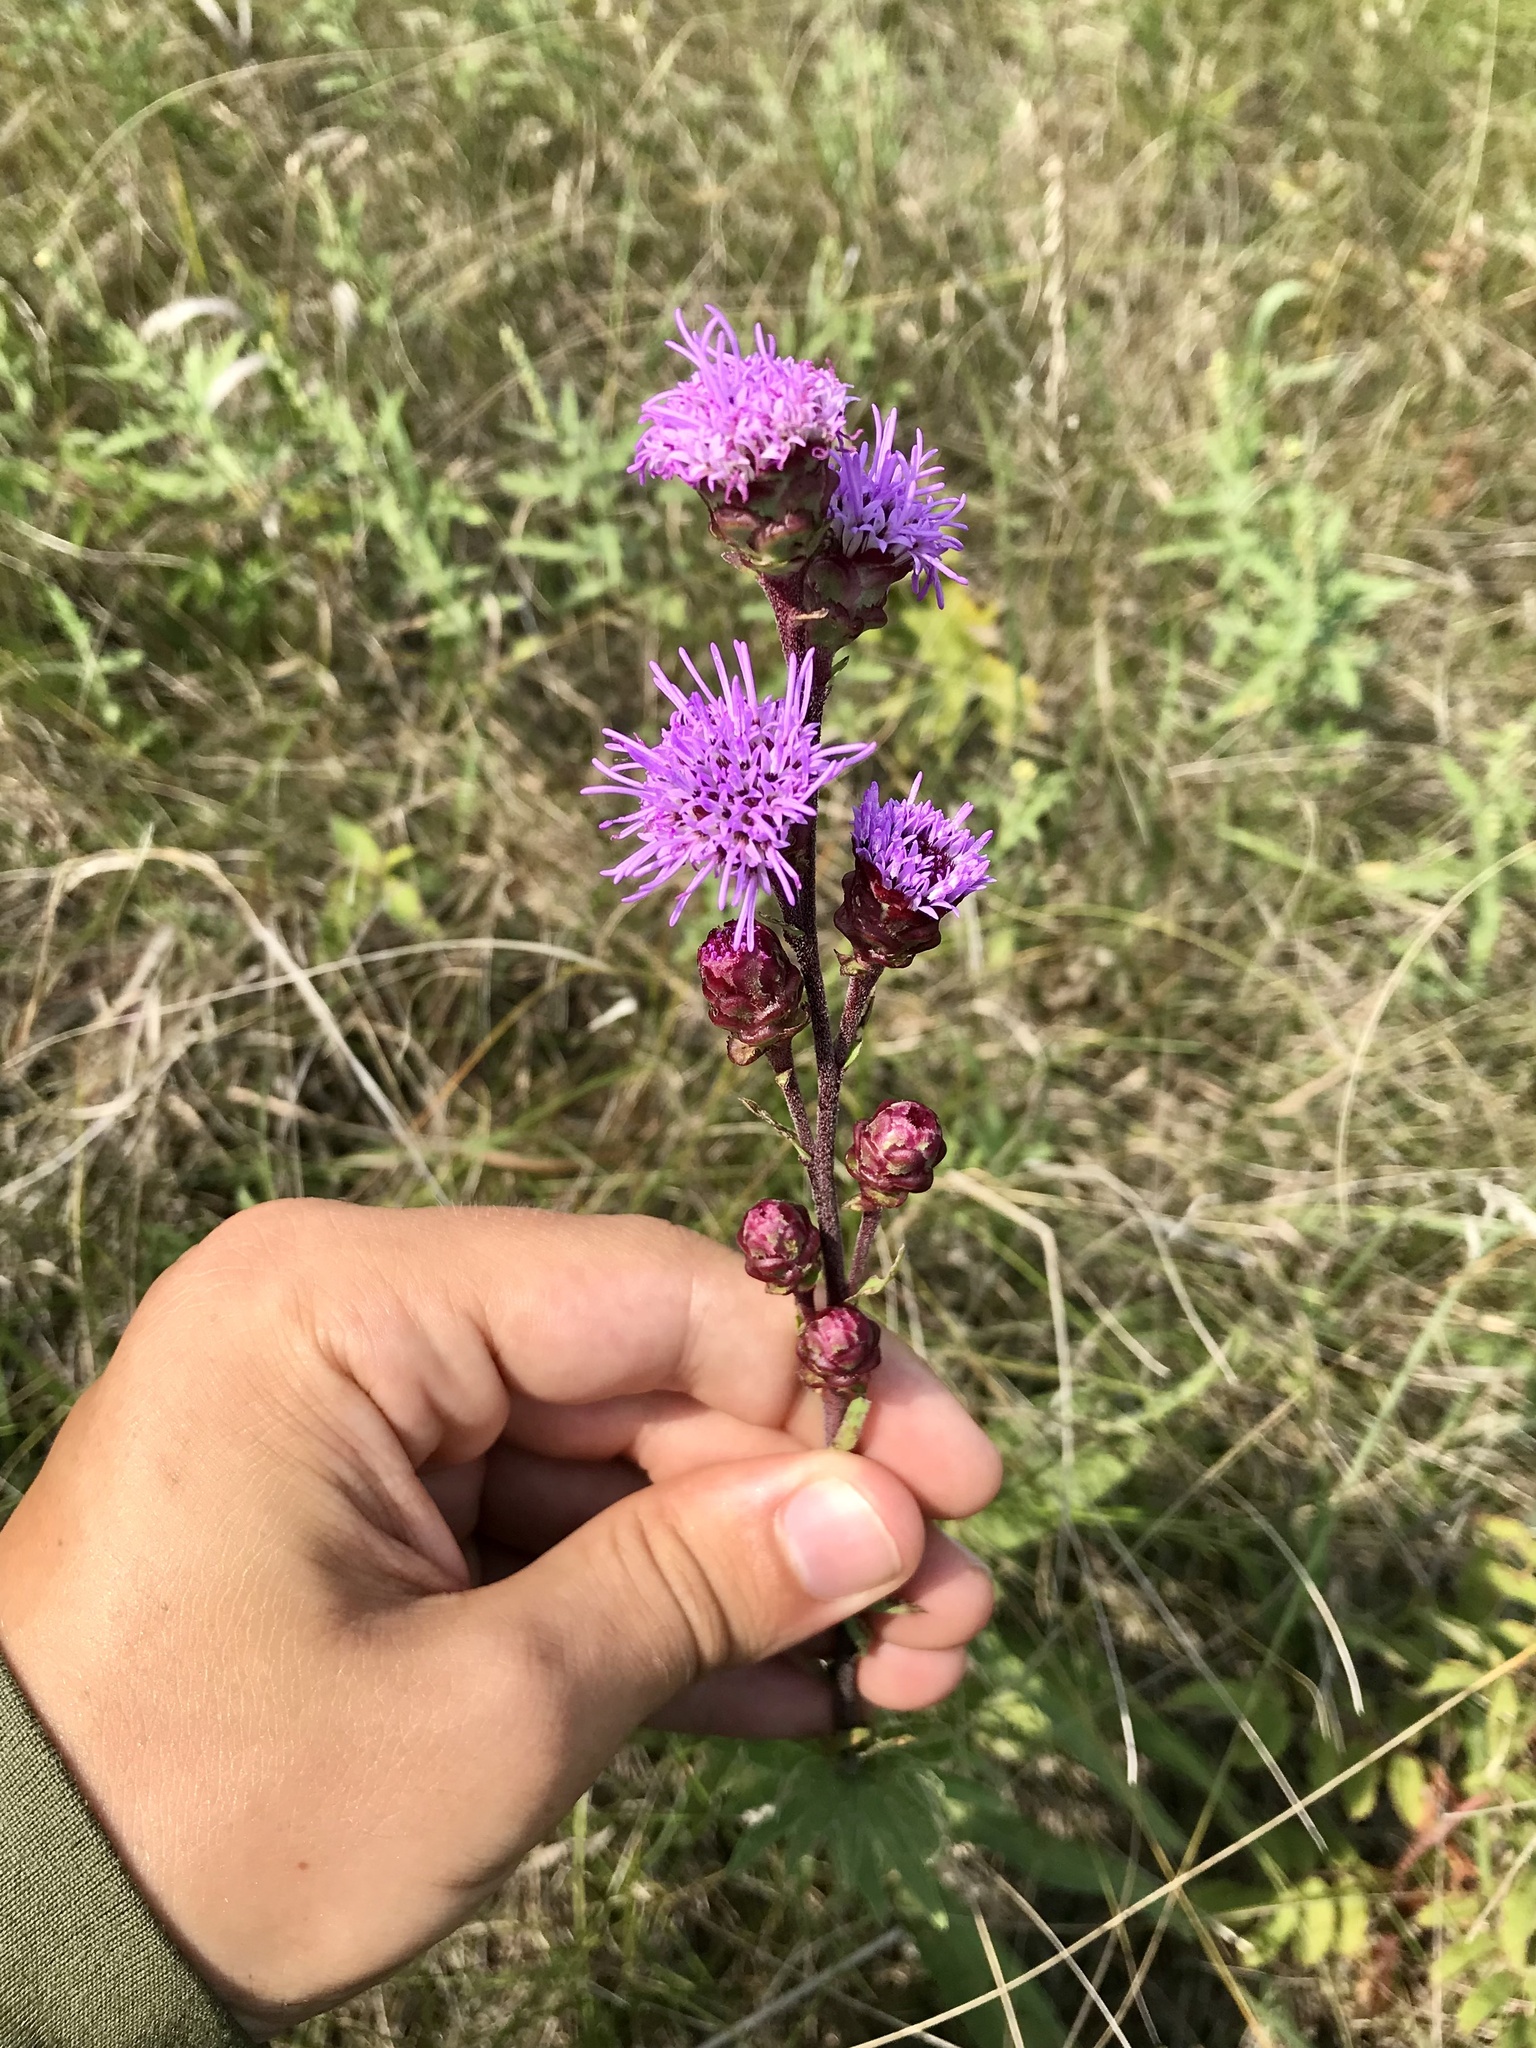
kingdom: Plantae
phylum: Tracheophyta
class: Magnoliopsida
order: Asterales
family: Asteraceae
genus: Liatris
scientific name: Liatris ligulistylis
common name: Northern plains gayfeather
